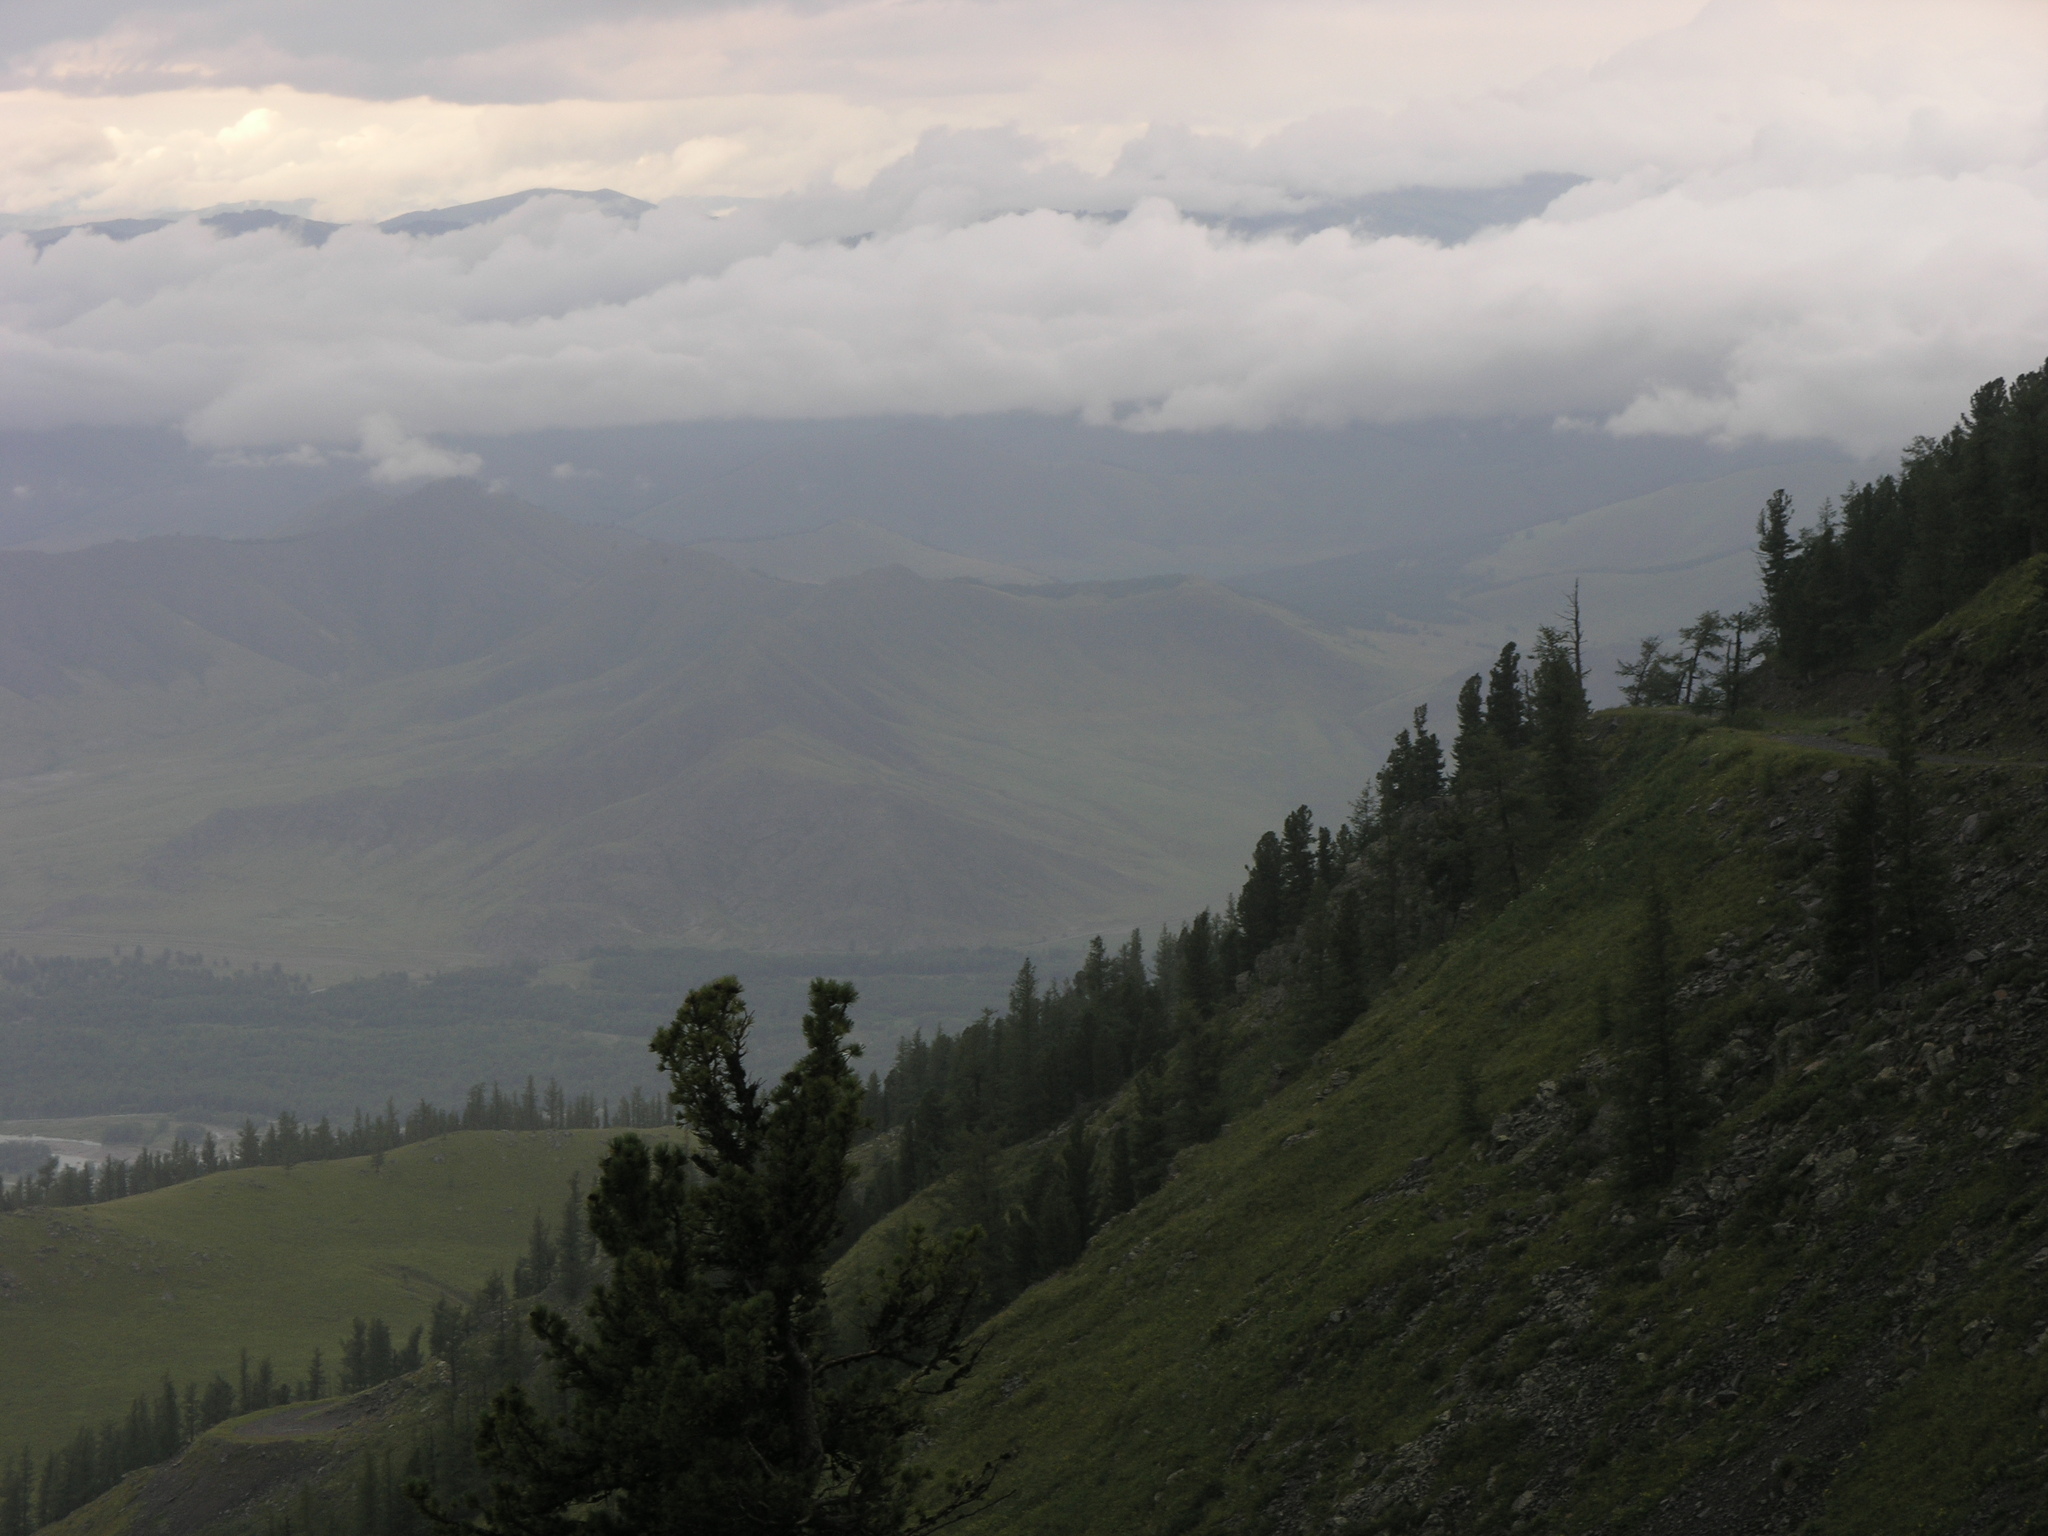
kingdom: Plantae
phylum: Tracheophyta
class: Pinopsida
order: Pinales
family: Pinaceae
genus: Pinus
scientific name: Pinus sibirica
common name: Siberian pine
